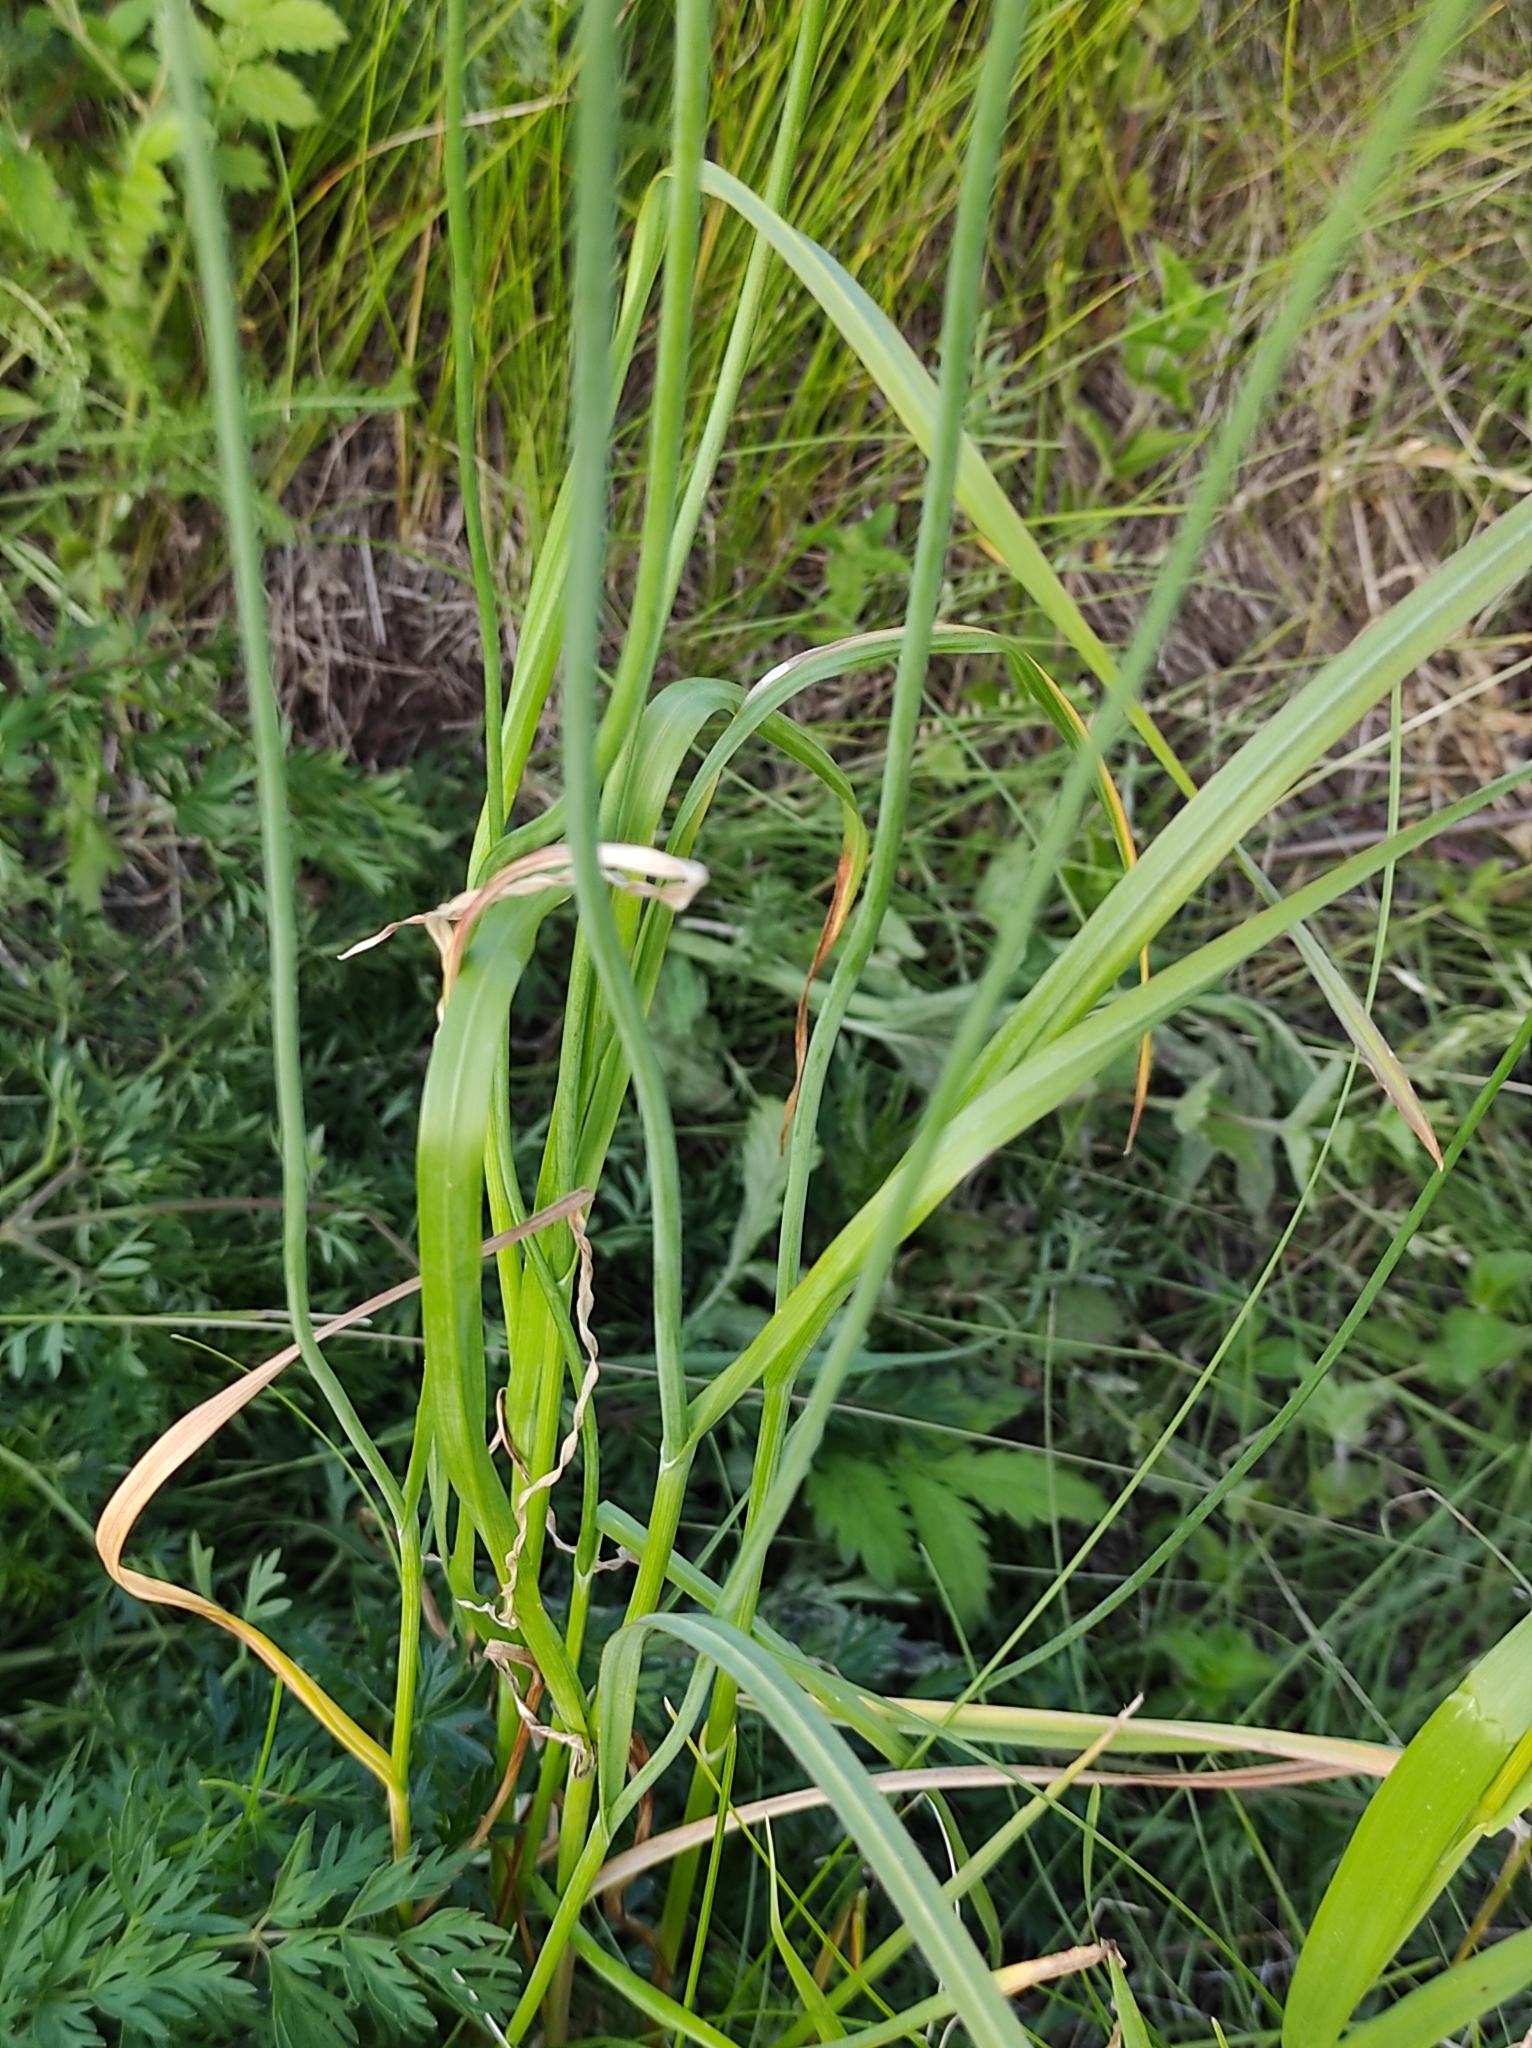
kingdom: Plantae
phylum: Tracheophyta
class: Liliopsida
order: Asparagales
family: Amaryllidaceae
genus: Allium
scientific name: Allium rotundum
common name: Sand leek
